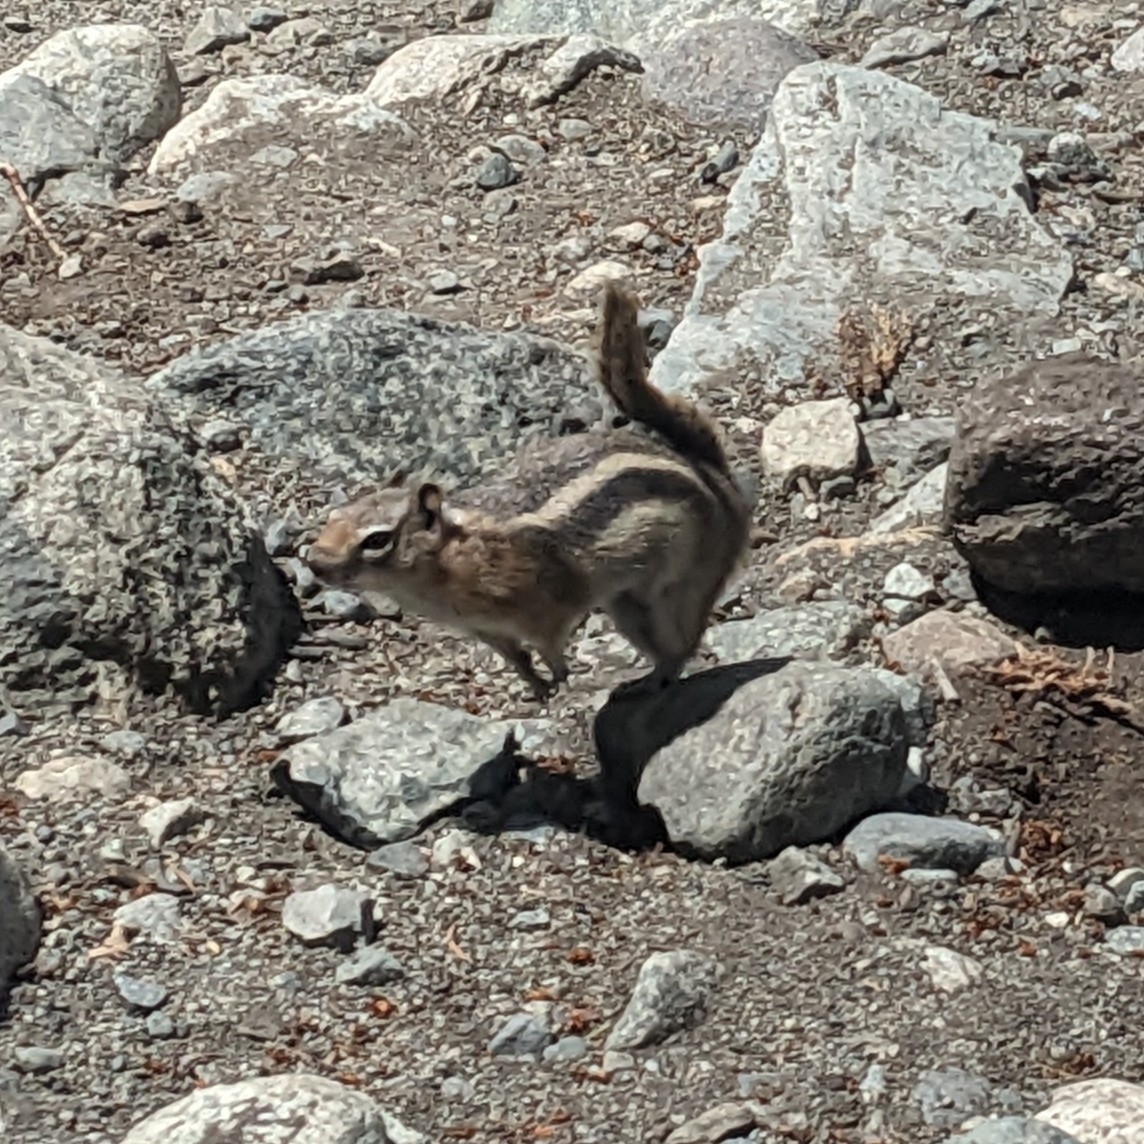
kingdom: Animalia
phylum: Chordata
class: Mammalia
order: Rodentia
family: Sciuridae
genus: Callospermophilus
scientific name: Callospermophilus lateralis
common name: Golden-mantled ground squirrel
